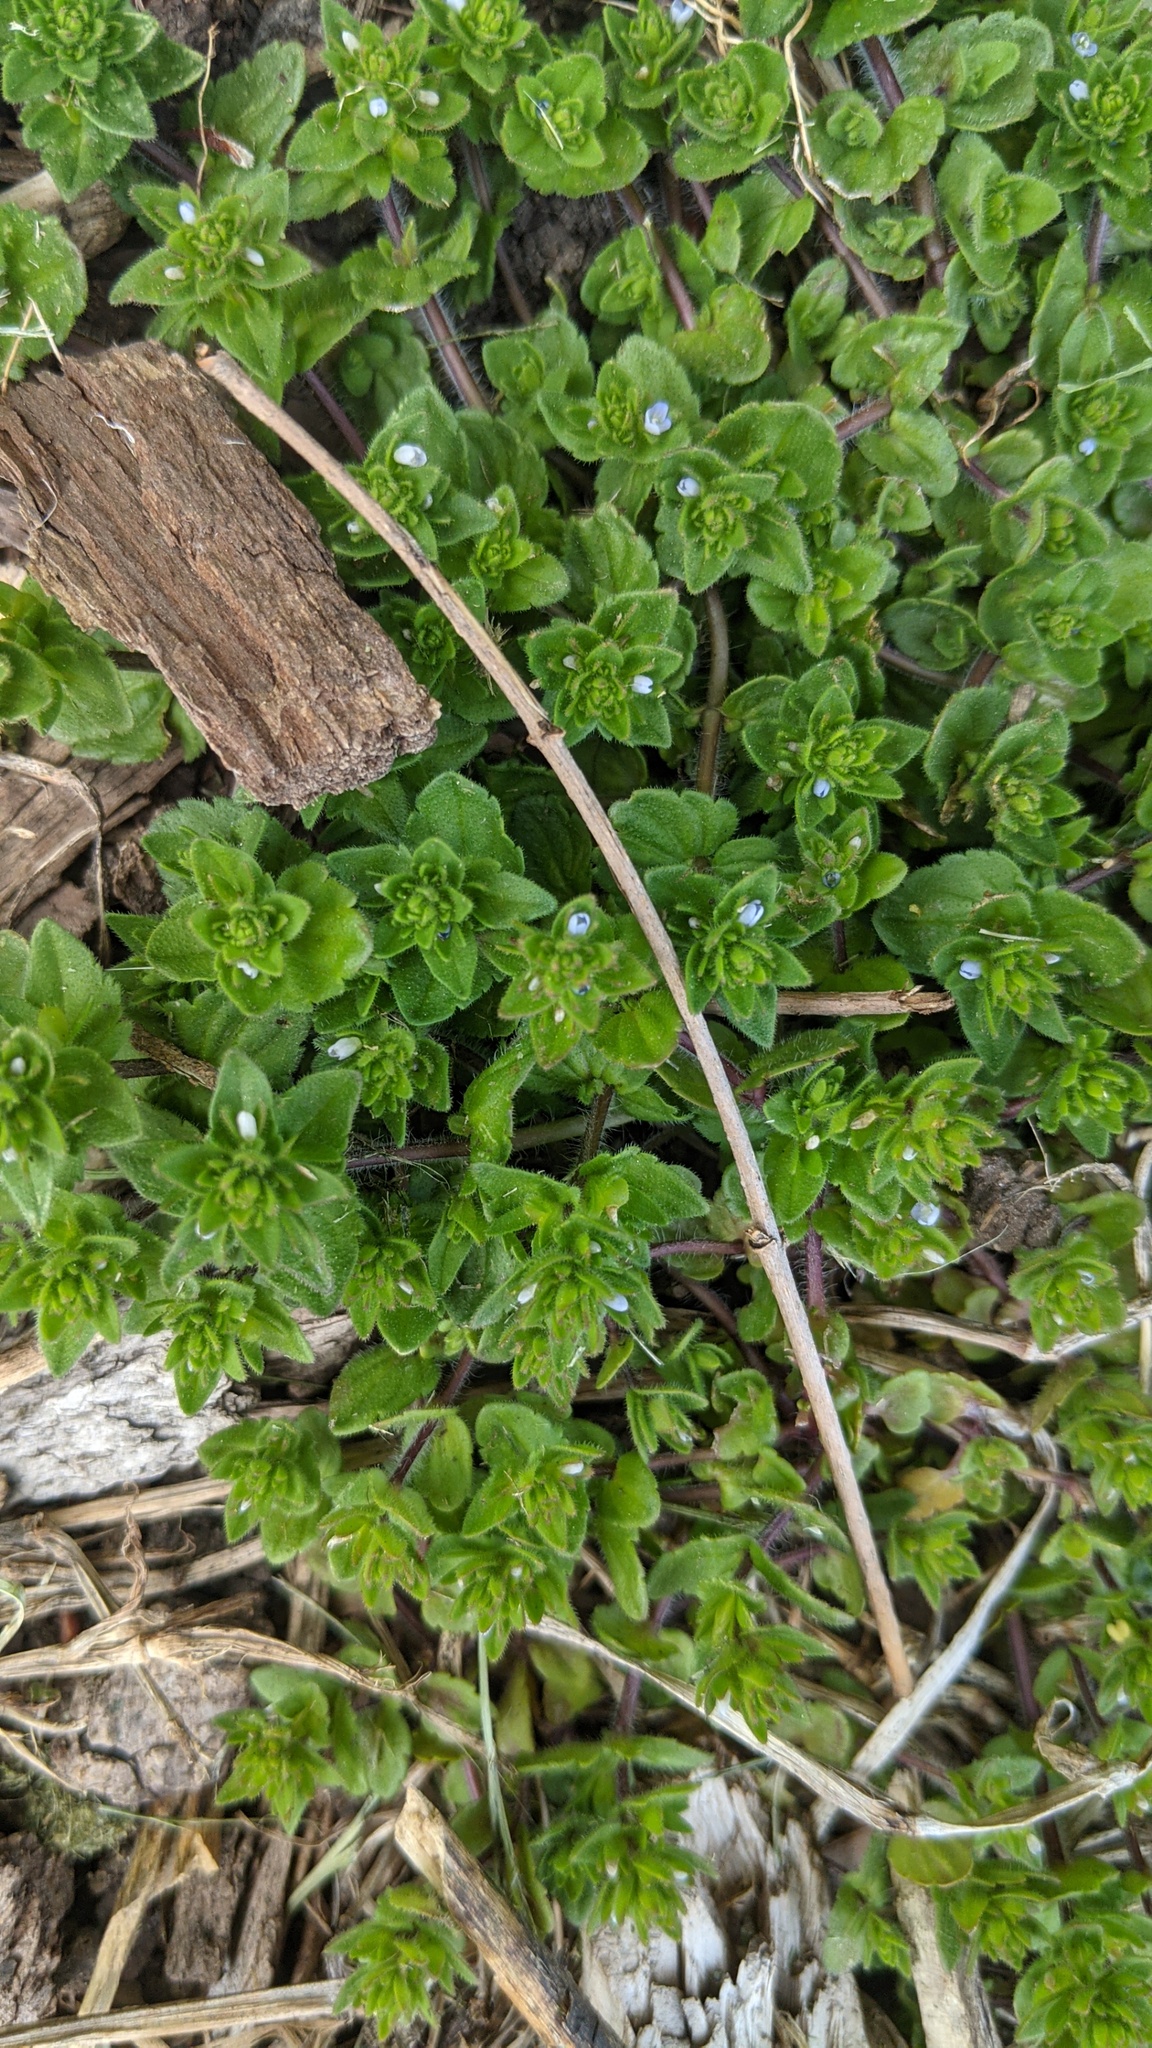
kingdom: Plantae
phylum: Tracheophyta
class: Magnoliopsida
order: Lamiales
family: Plantaginaceae
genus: Veronica
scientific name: Veronica arvensis
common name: Corn speedwell
